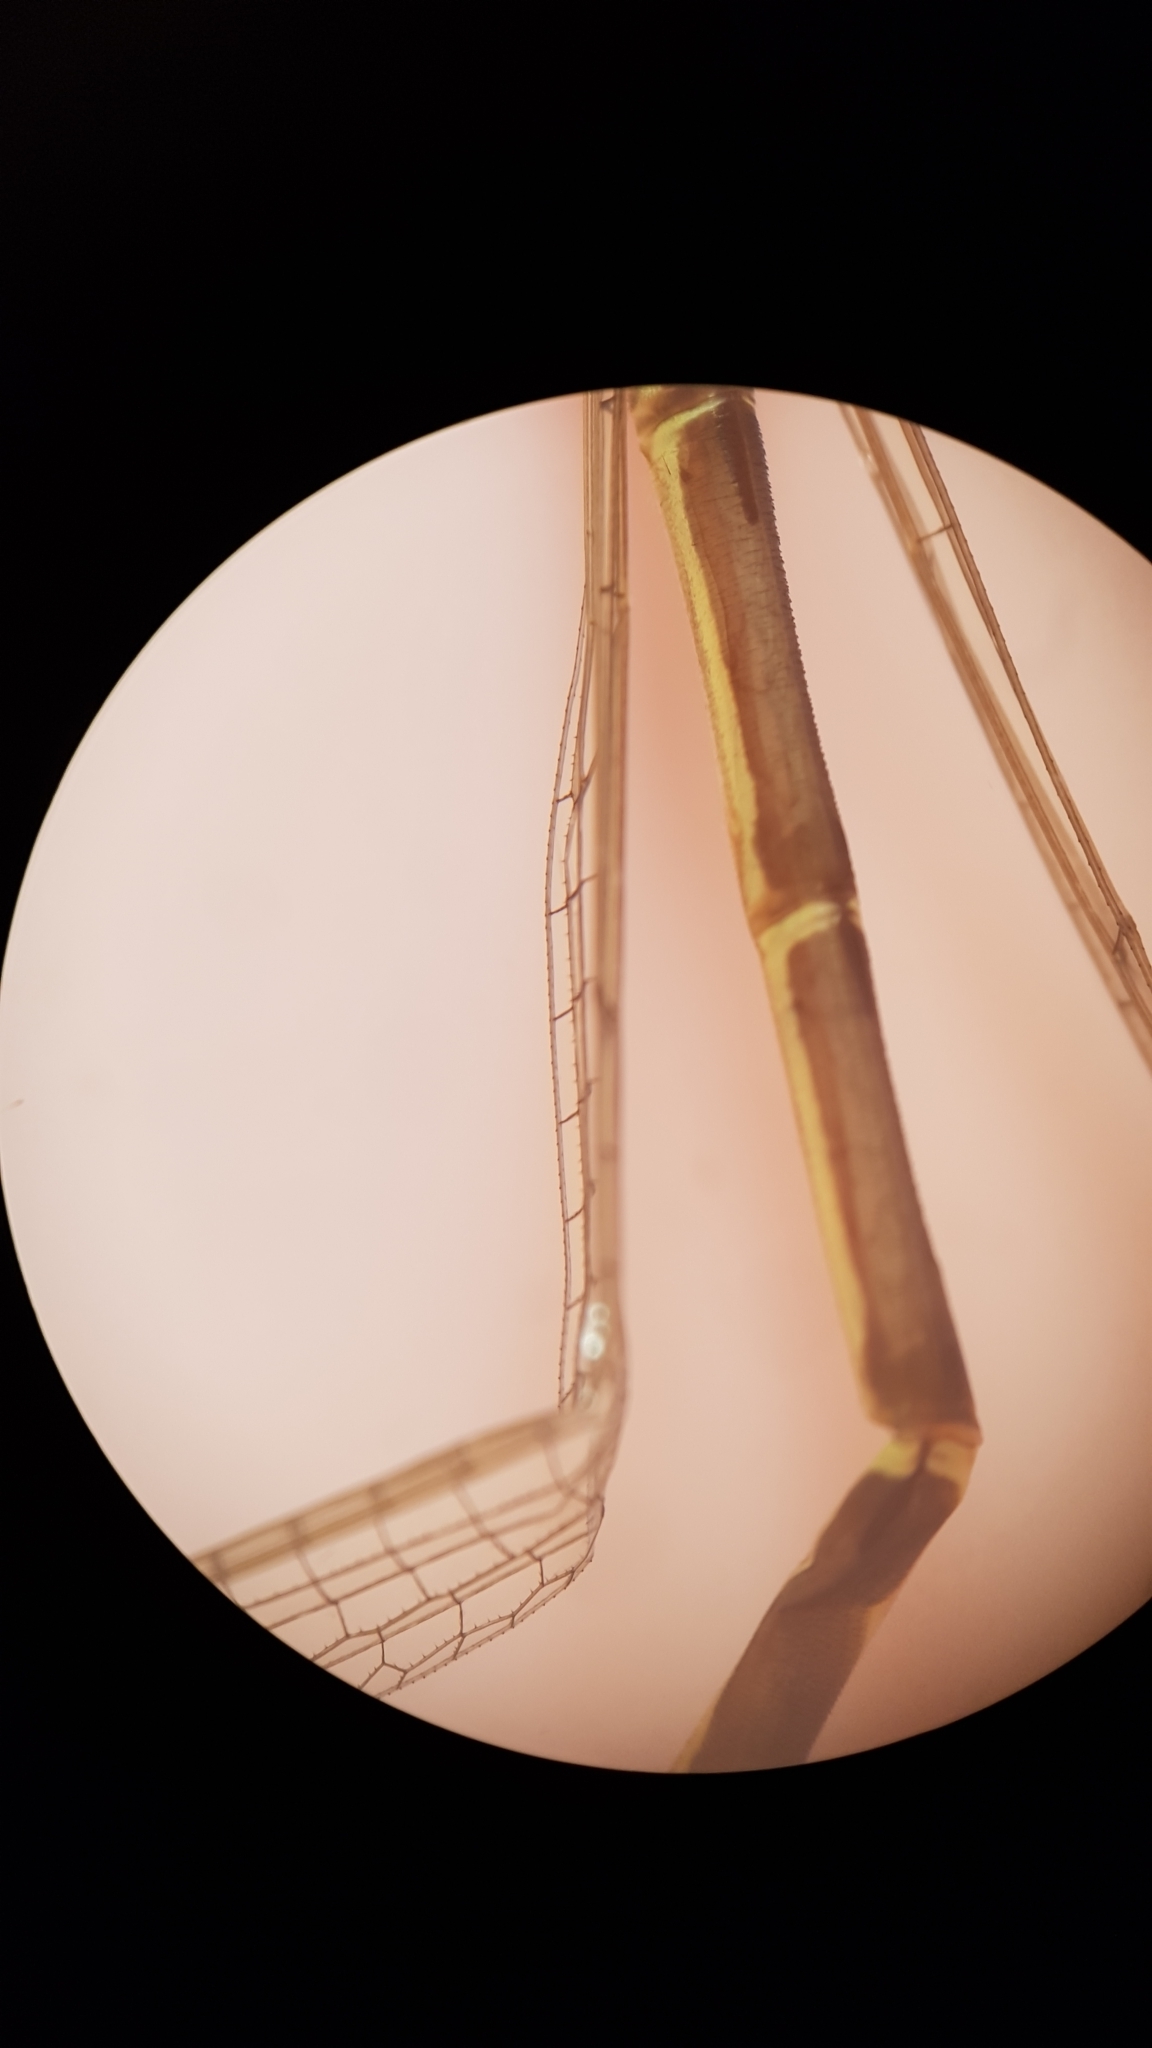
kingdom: Animalia
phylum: Arthropoda
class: Insecta
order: Odonata
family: Coenagrionidae
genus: Xanthocnemis
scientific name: Xanthocnemis zealandica
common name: Common redcoat damselfly
